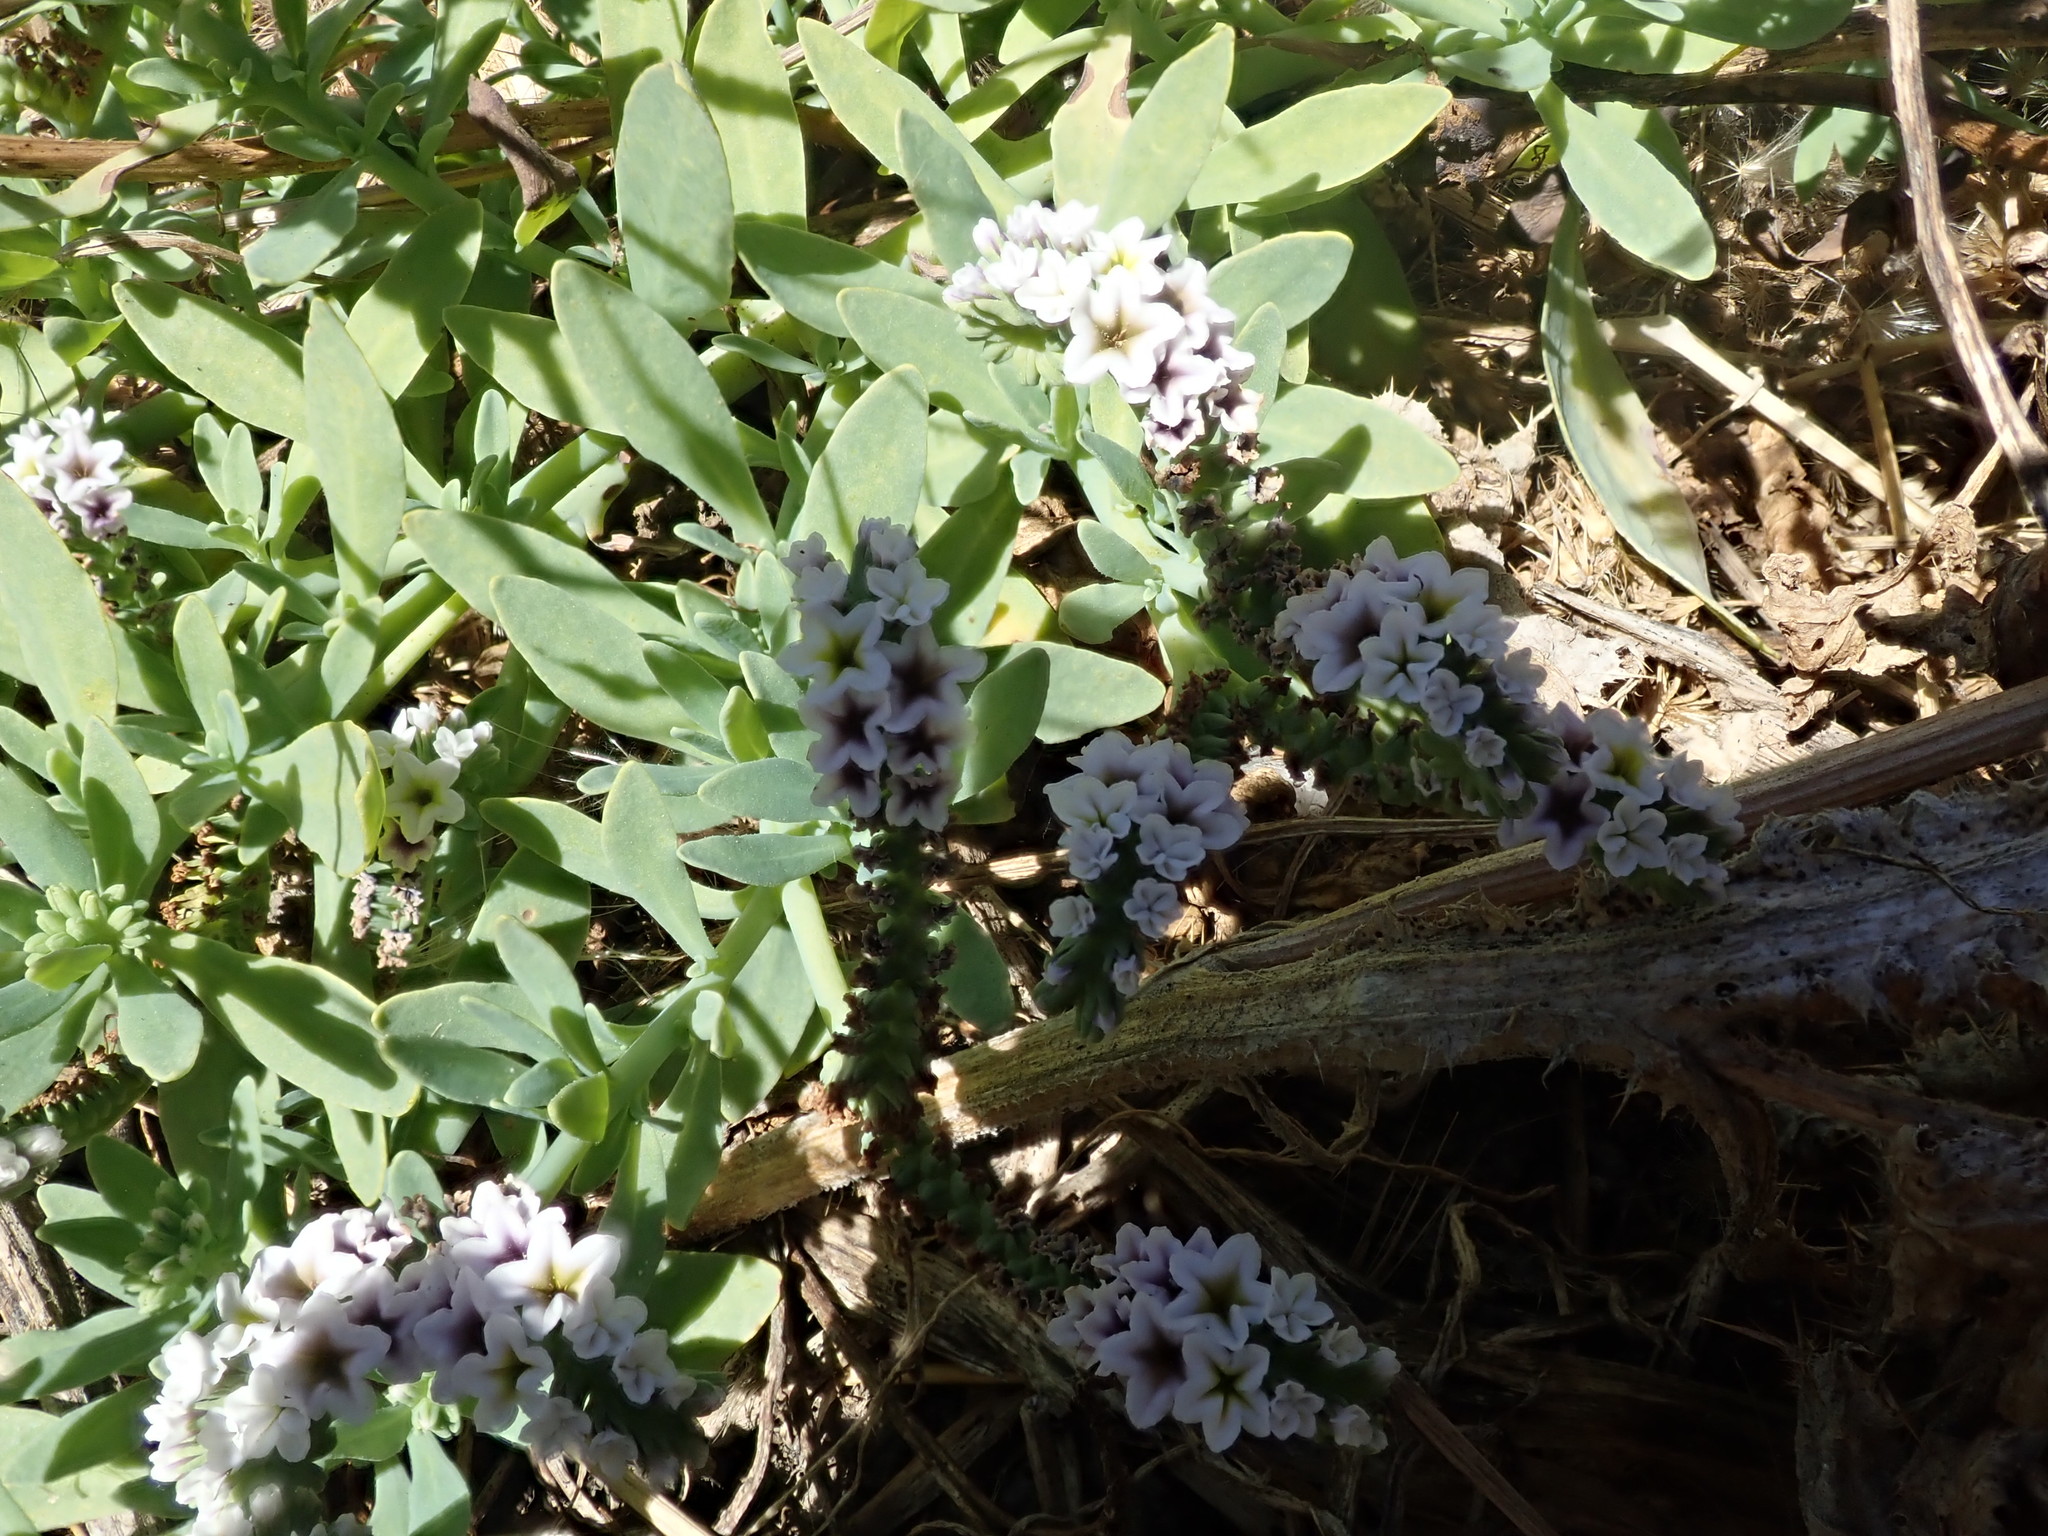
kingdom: Plantae
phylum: Tracheophyta
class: Magnoliopsida
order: Boraginales
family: Heliotropiaceae
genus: Heliotropium
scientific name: Heliotropium curassavicum
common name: Seaside heliotrope
